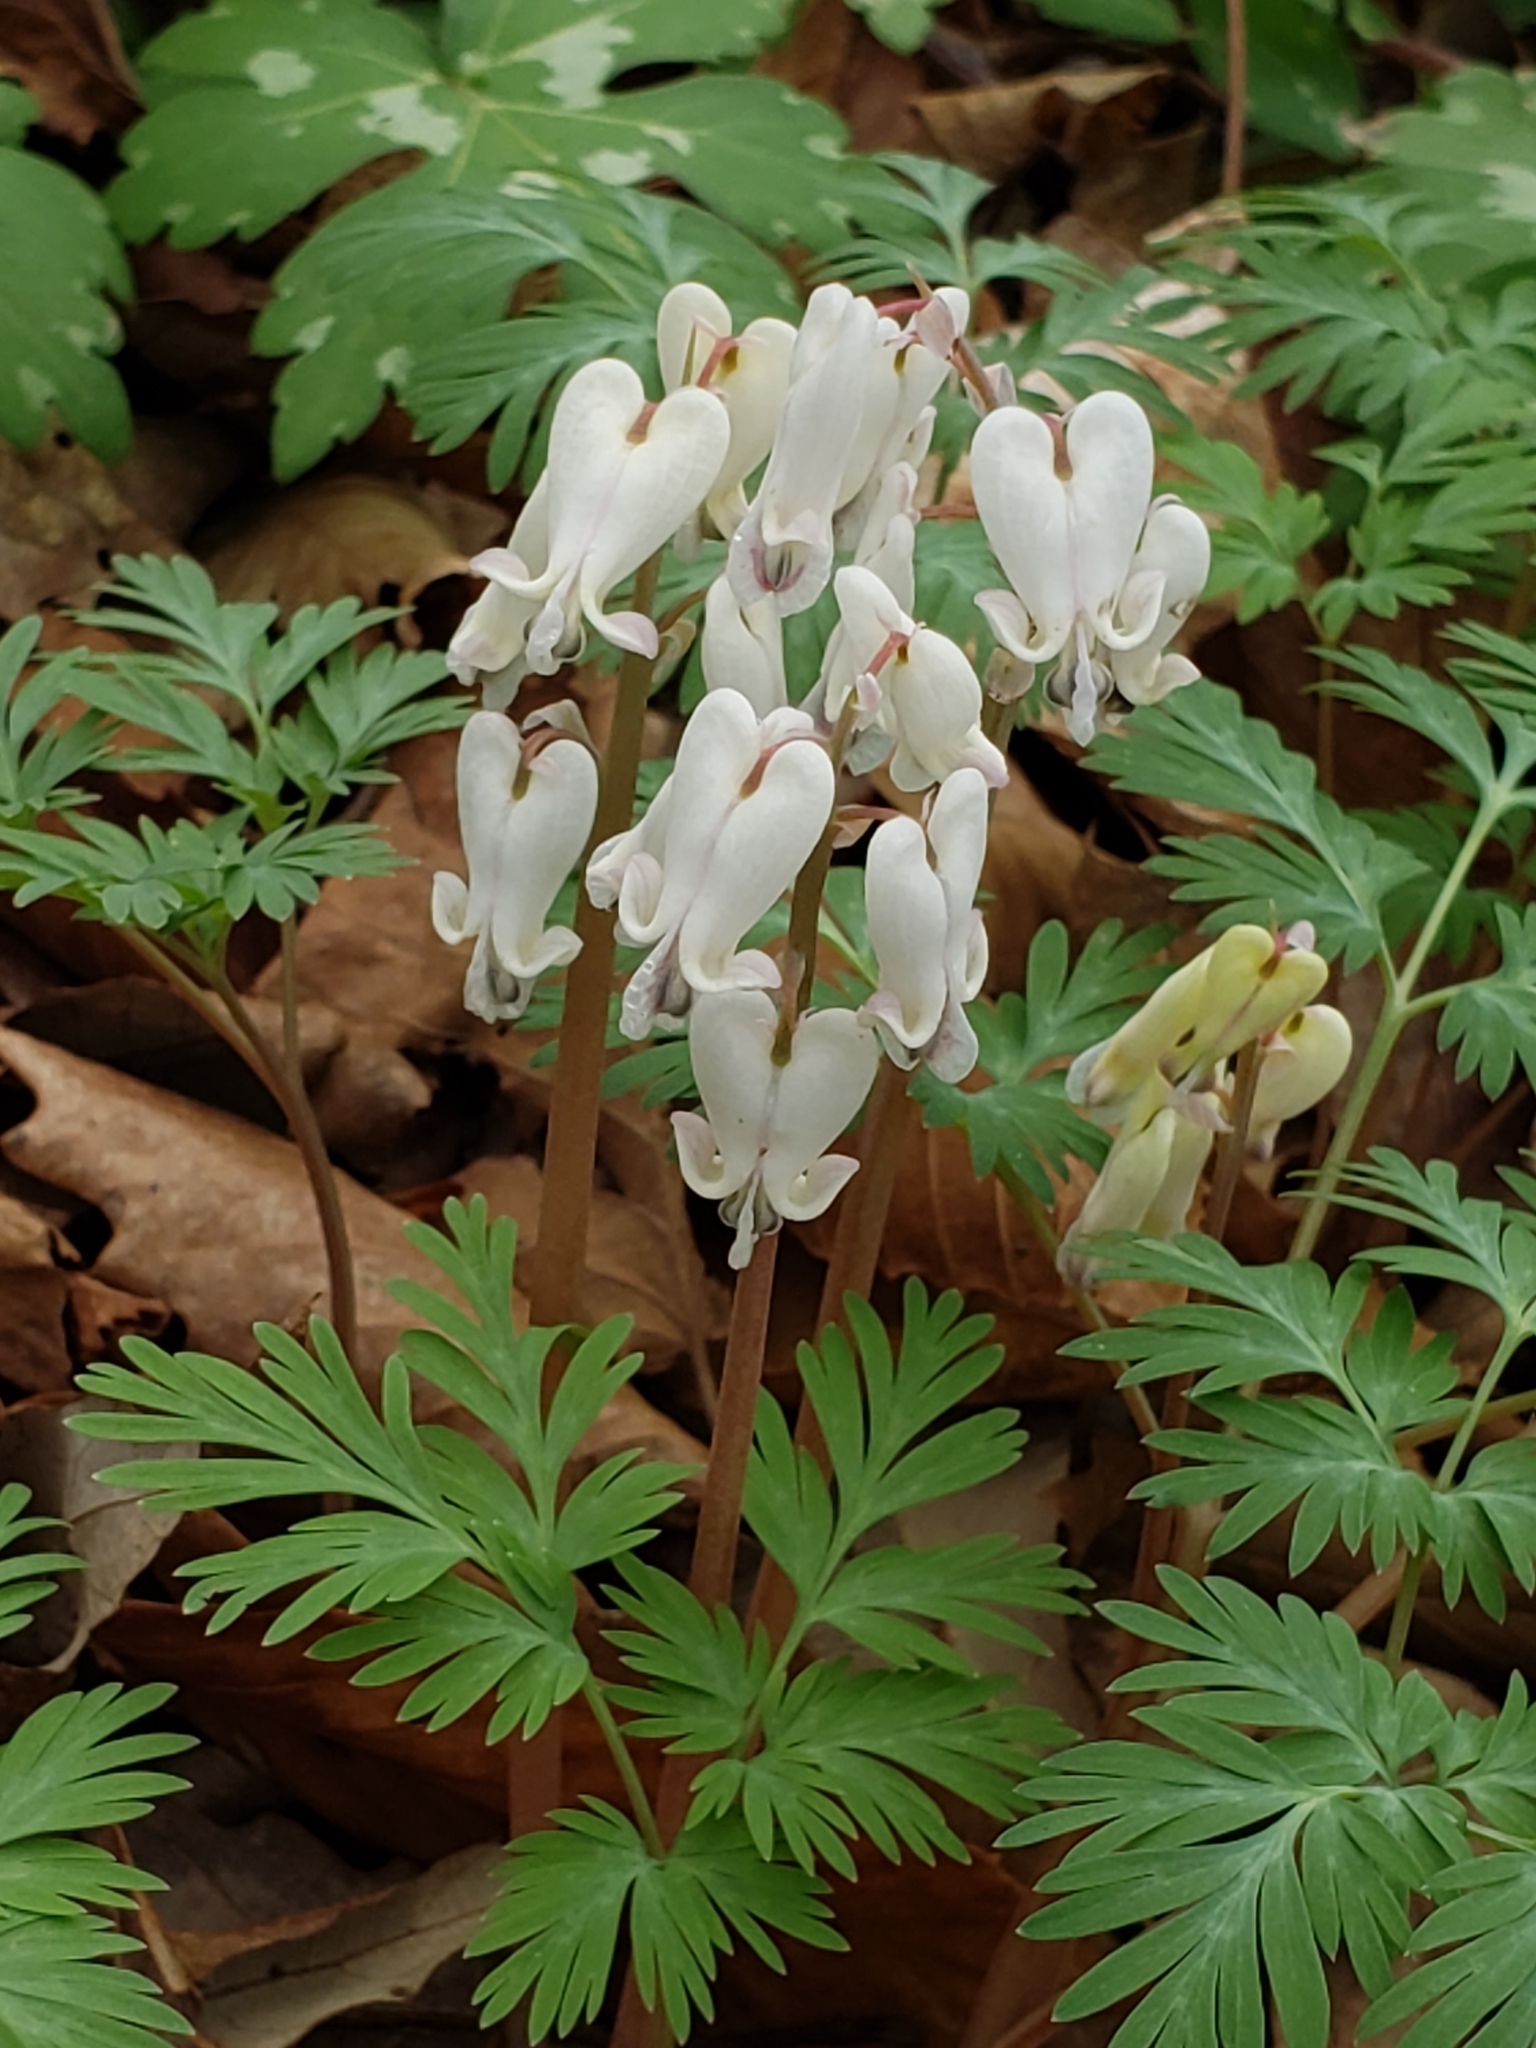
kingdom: Plantae
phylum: Tracheophyta
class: Magnoliopsida
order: Ranunculales
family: Papaveraceae
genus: Dicentra
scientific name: Dicentra canadensis
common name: Squirrel-corn
